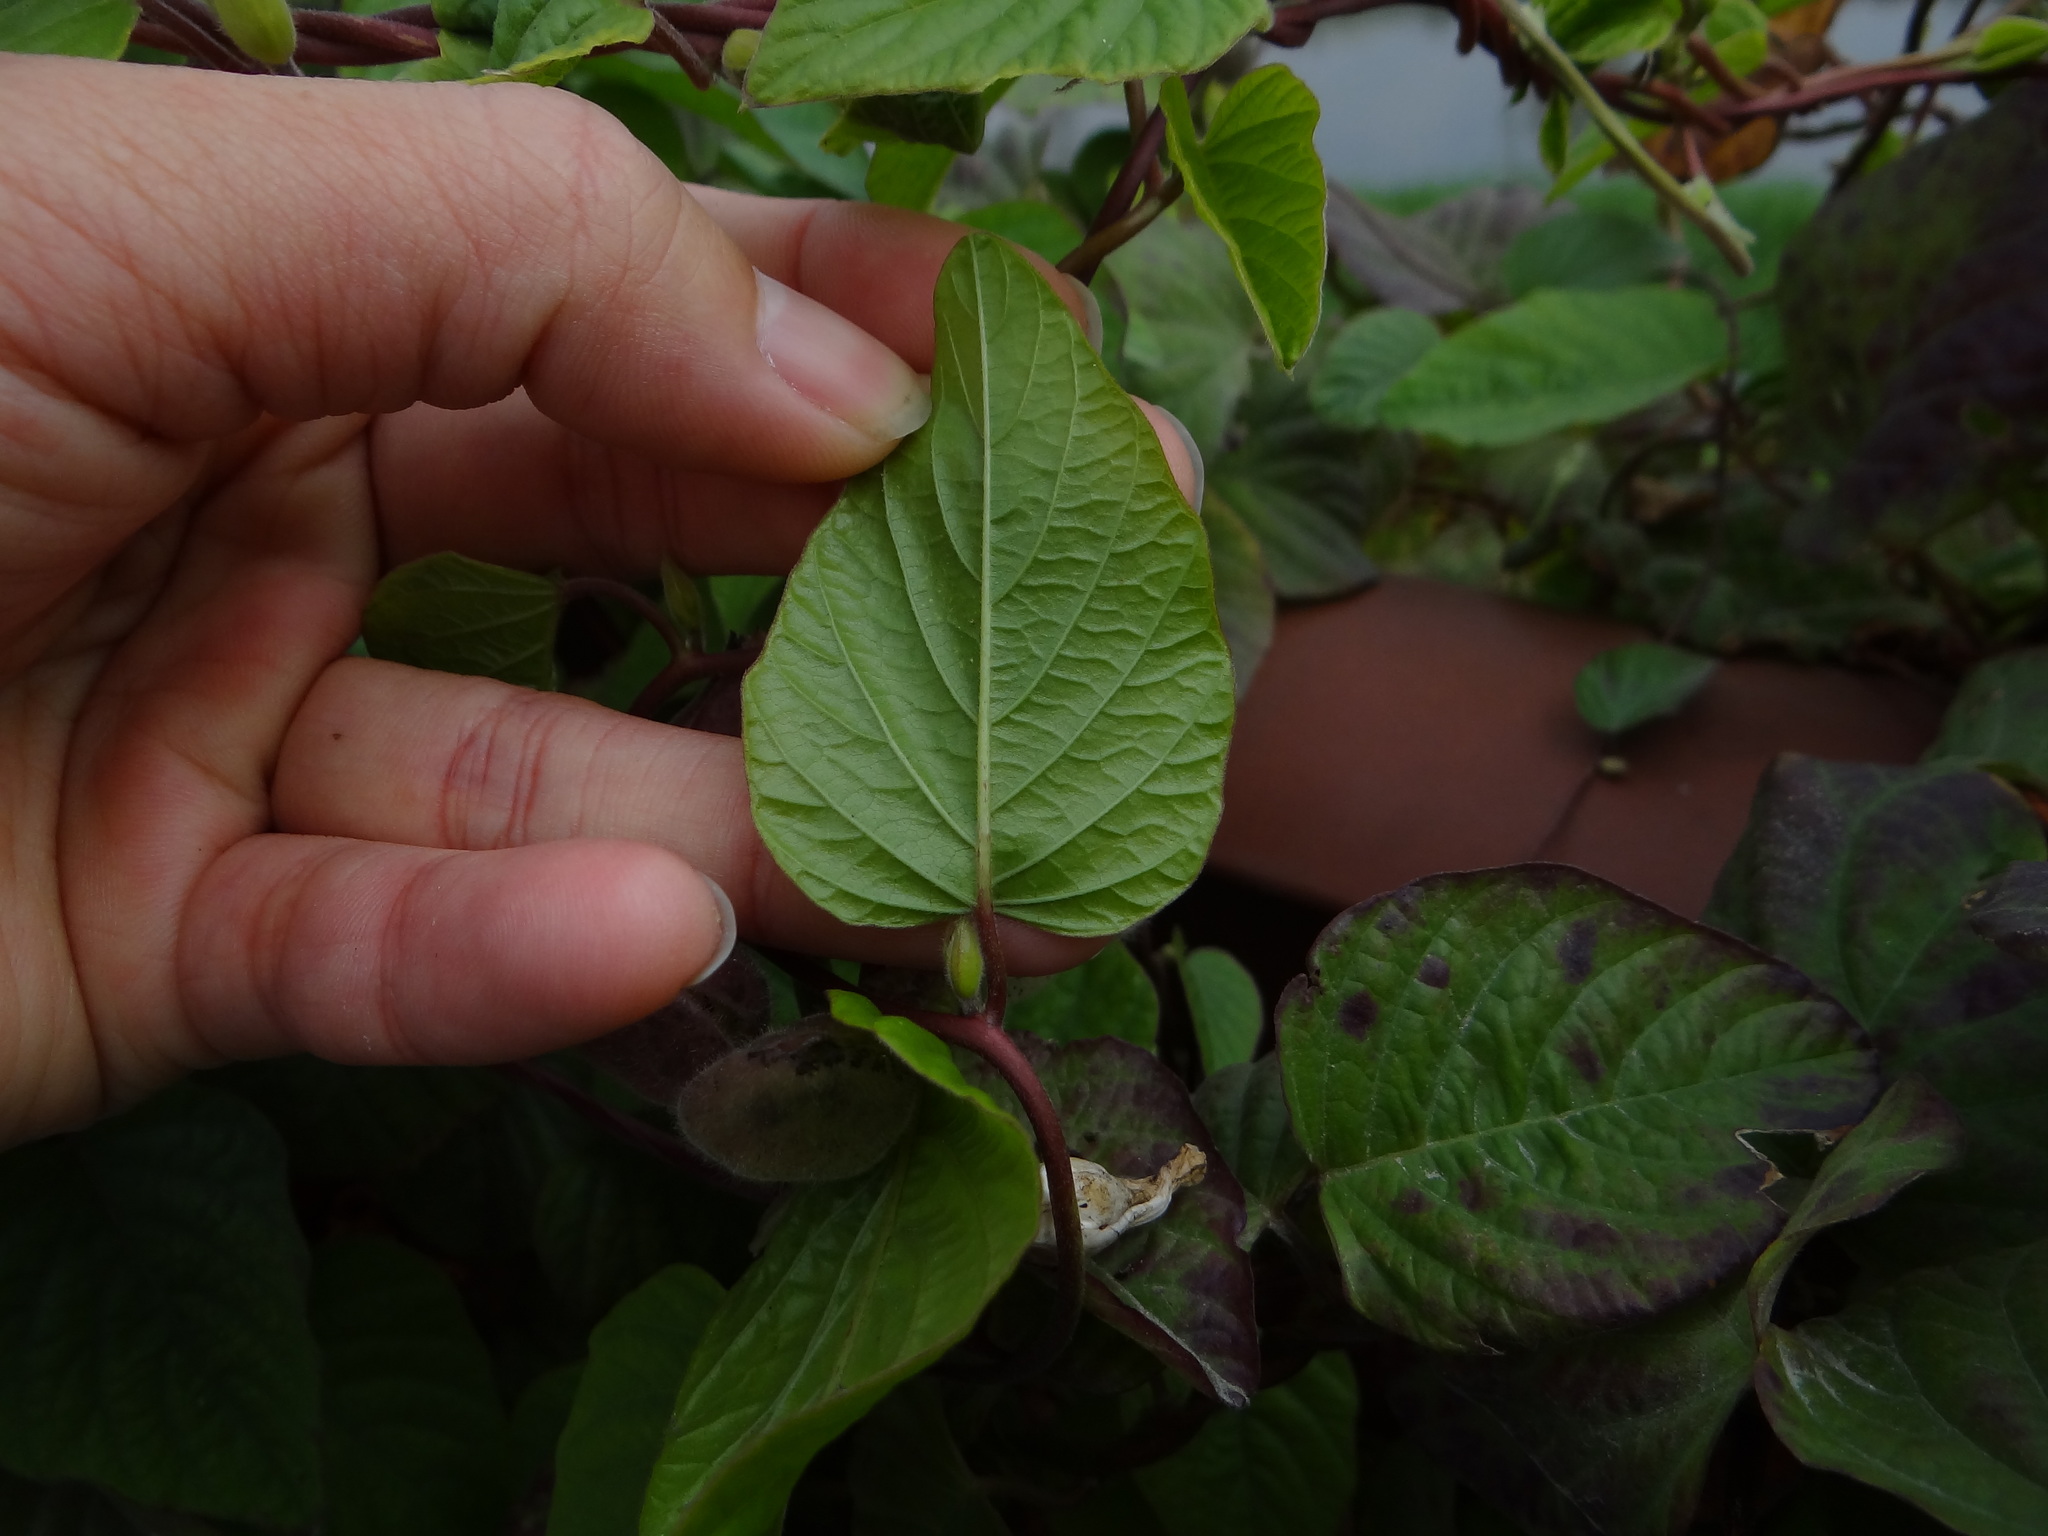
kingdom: Plantae
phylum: Tracheophyta
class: Magnoliopsida
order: Solanales
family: Convolvulaceae
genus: Operculina
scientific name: Operculina turpethum
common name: Transparent wood-rose
